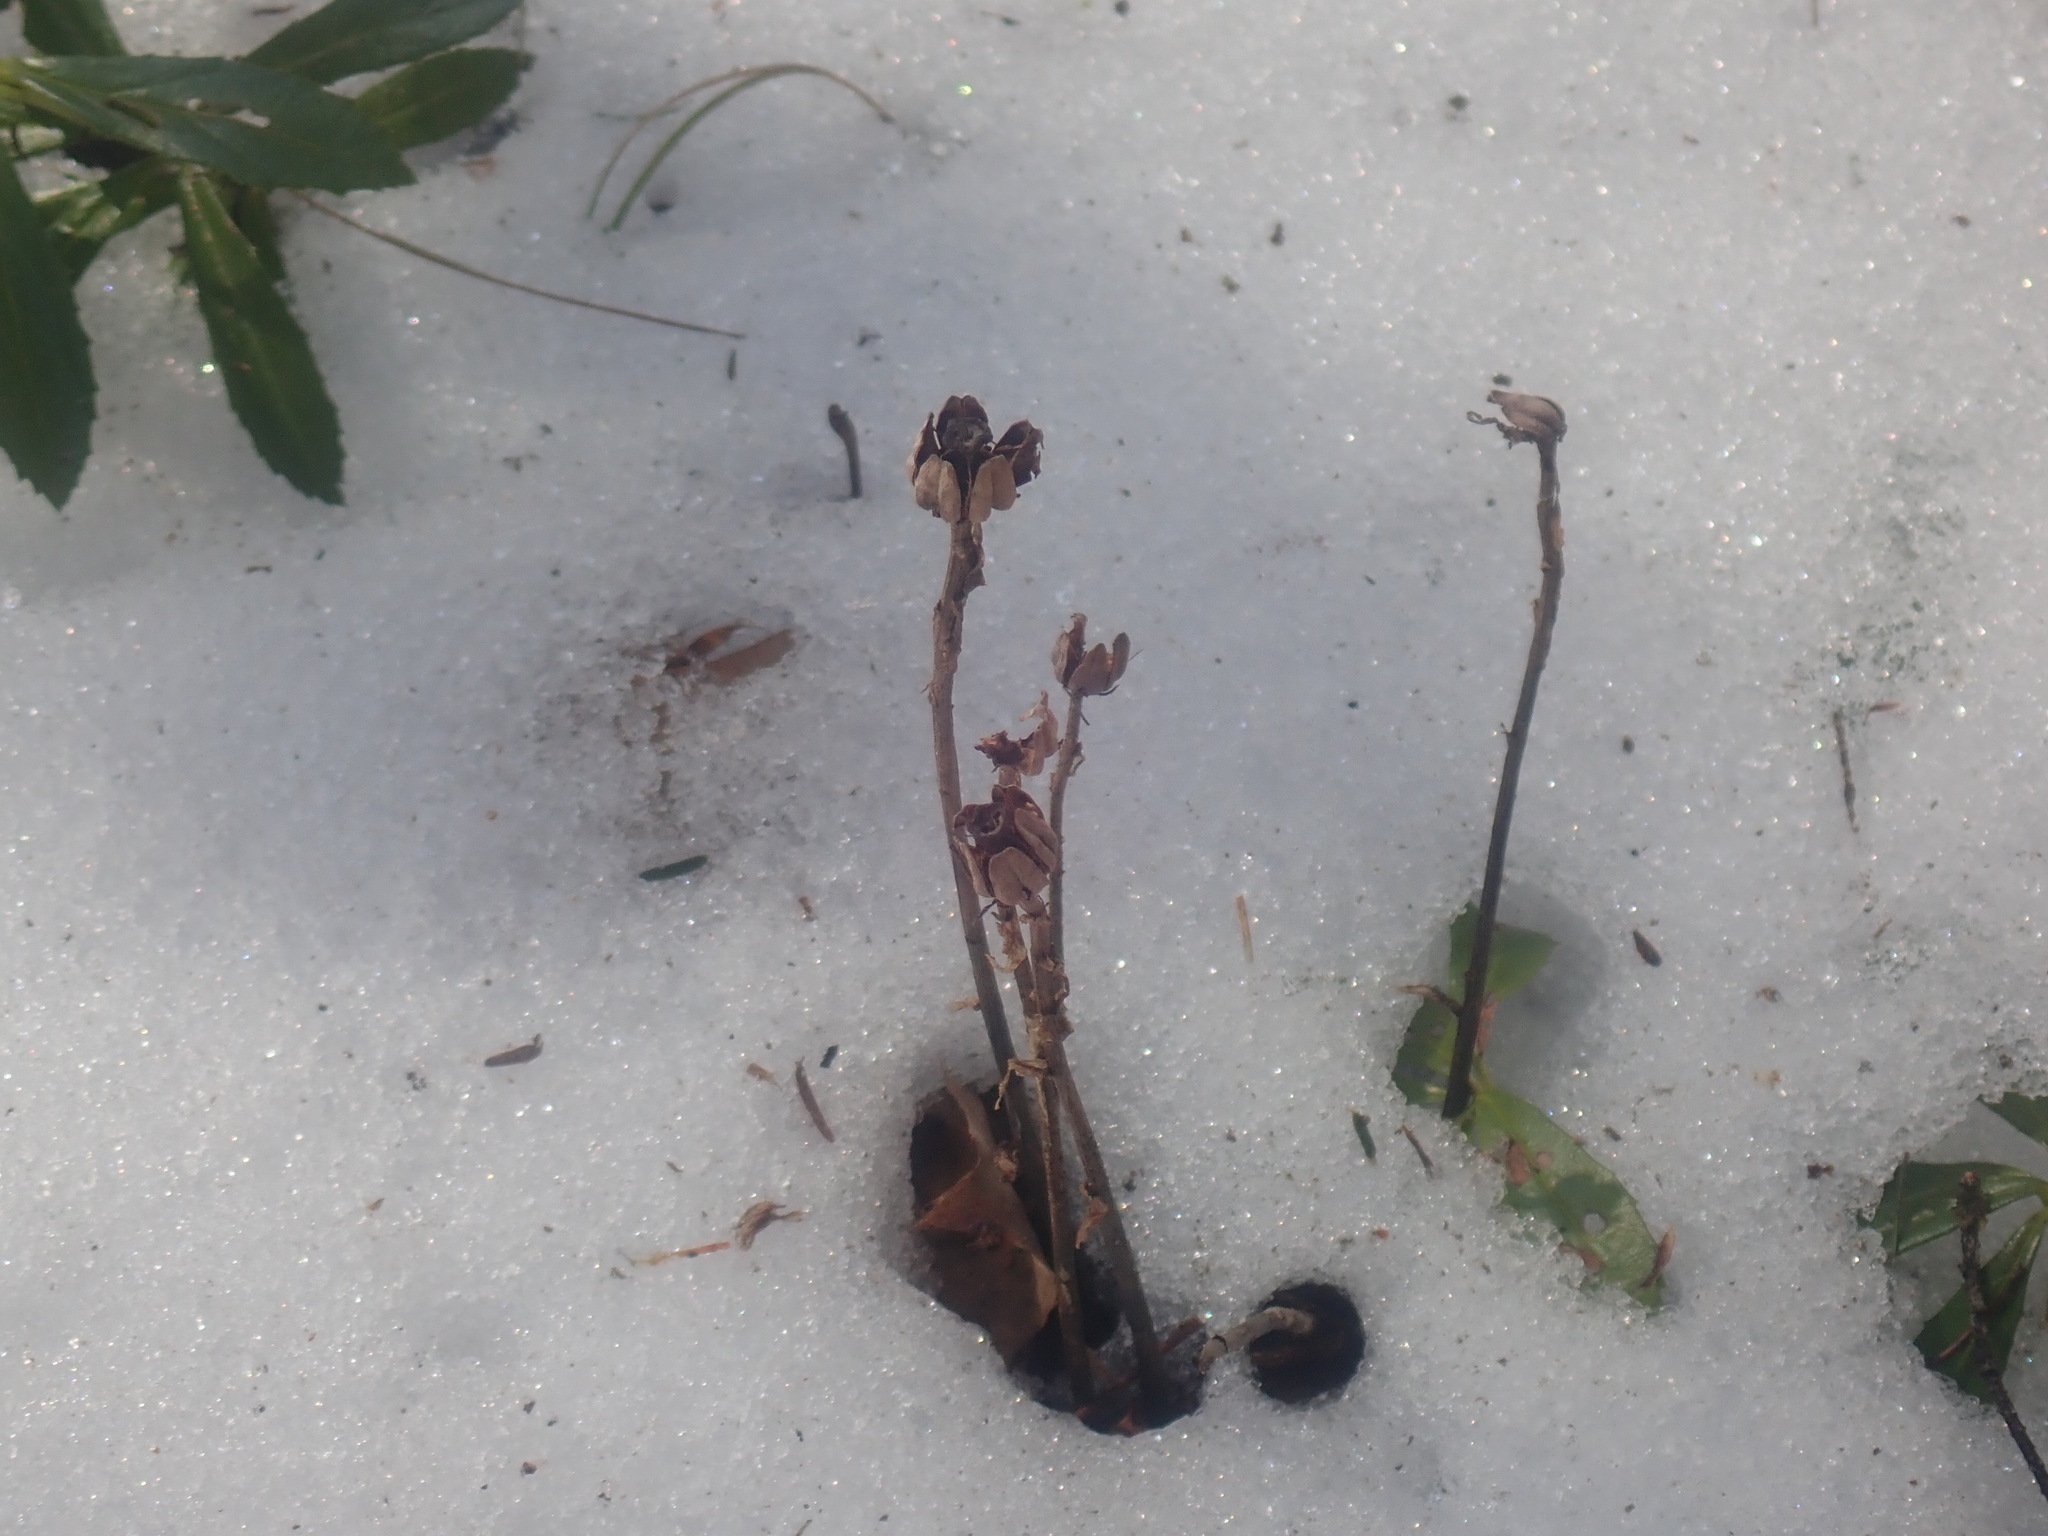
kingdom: Plantae
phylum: Tracheophyta
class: Magnoliopsida
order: Ericales
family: Ericaceae
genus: Monotropa
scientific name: Monotropa uniflora
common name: Convulsion root
